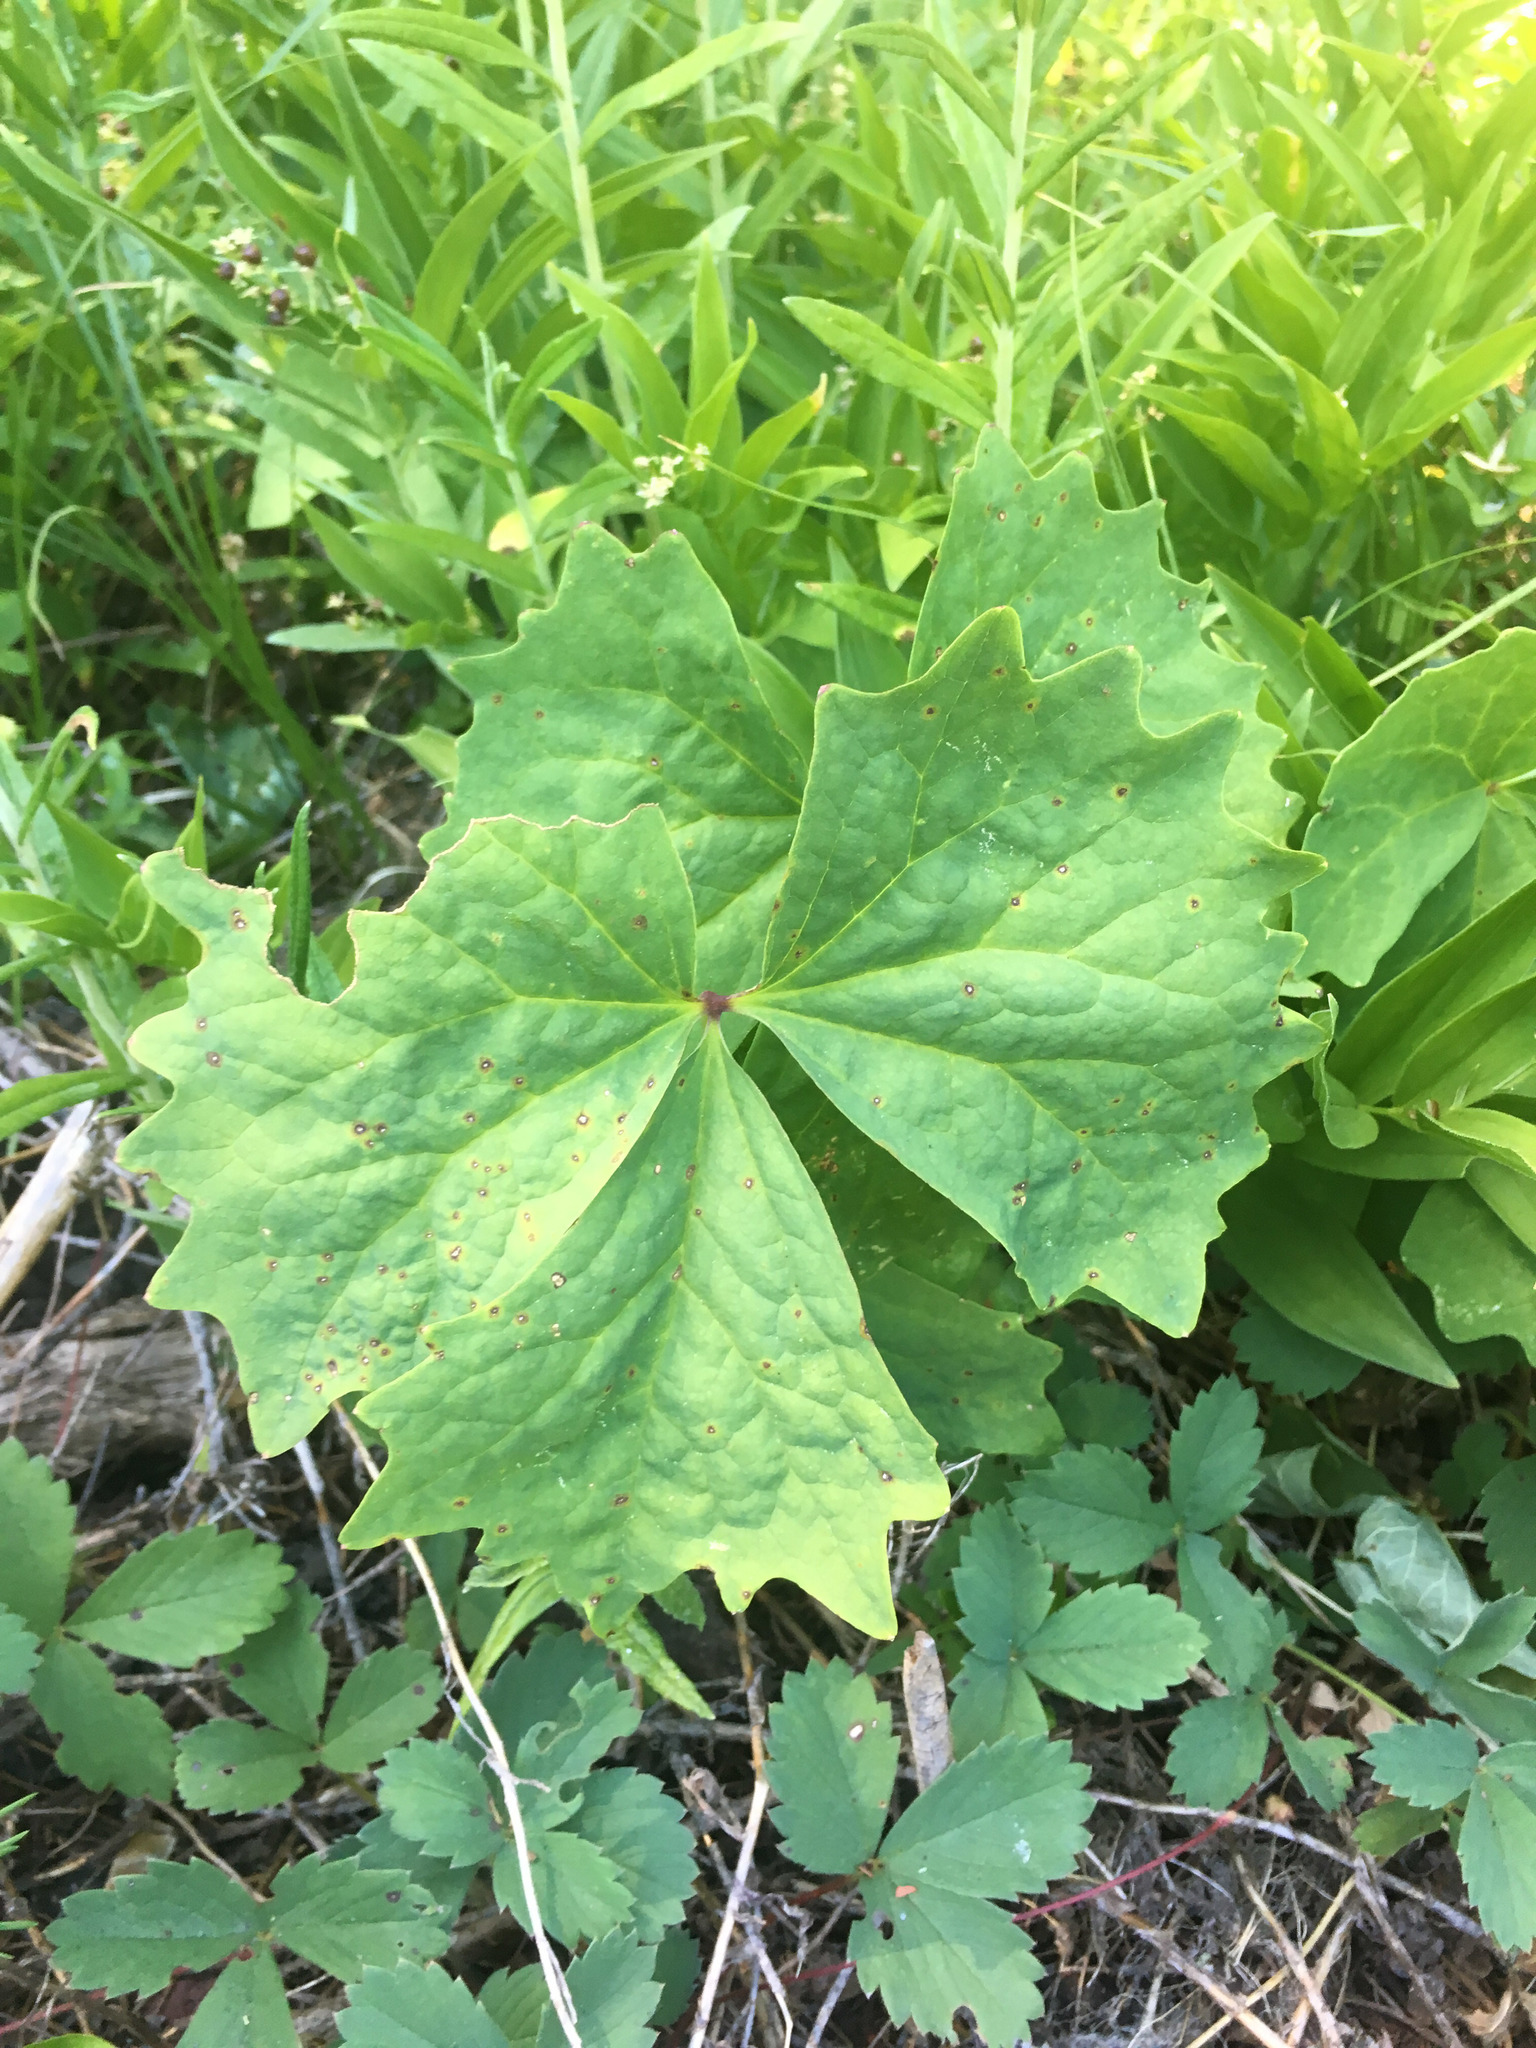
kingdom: Plantae
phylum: Tracheophyta
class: Magnoliopsida
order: Ranunculales
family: Berberidaceae
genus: Achlys
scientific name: Achlys californica
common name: California deer-foot
